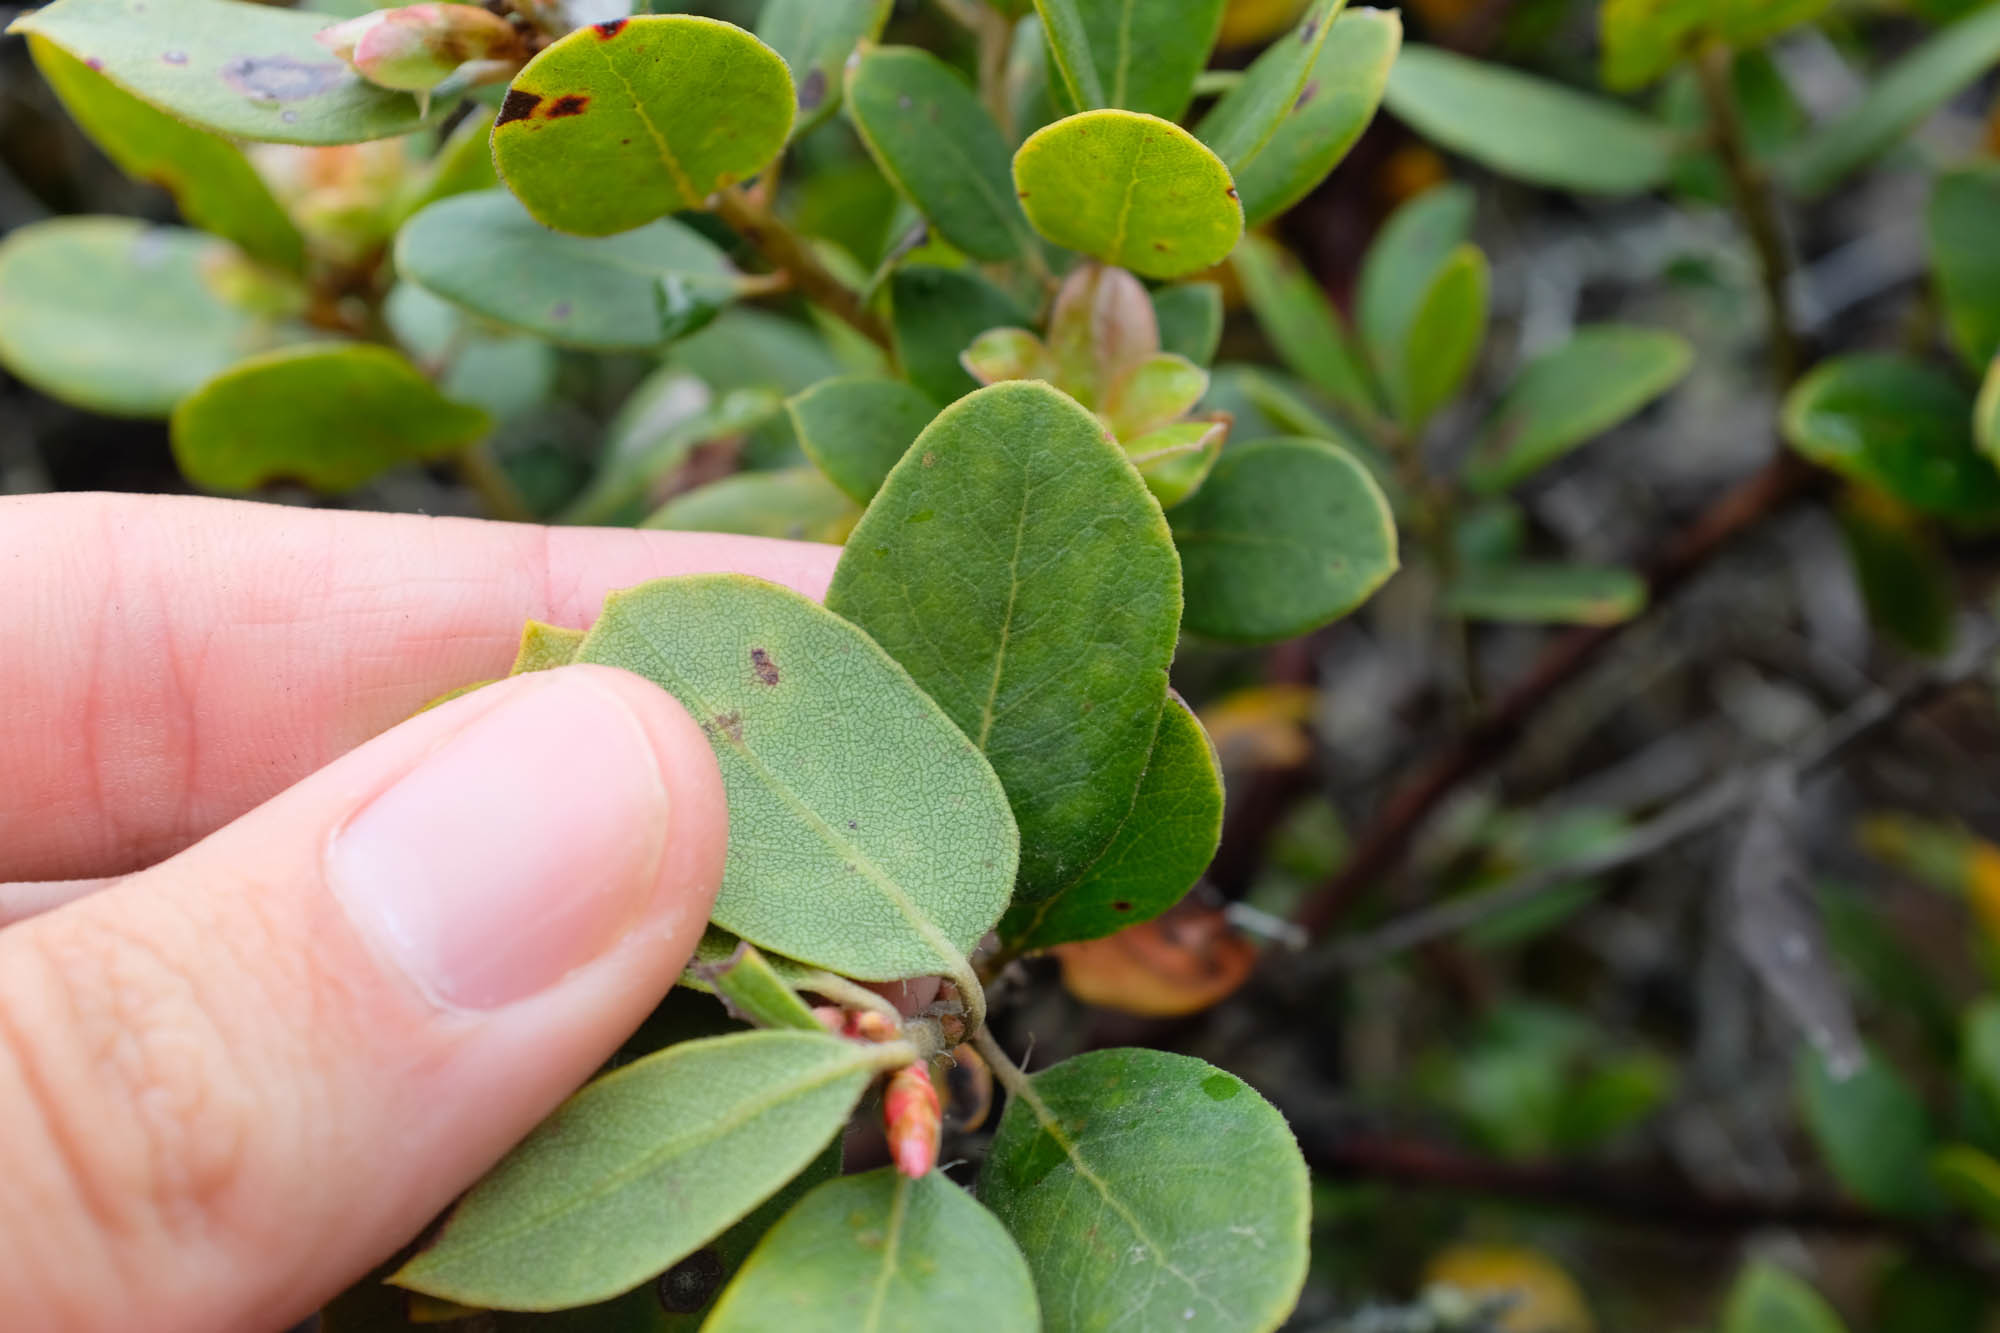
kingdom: Plantae
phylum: Tracheophyta
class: Magnoliopsida
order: Ericales
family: Ericaceae
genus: Arctostaphylos
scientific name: Arctostaphylos crustacea
